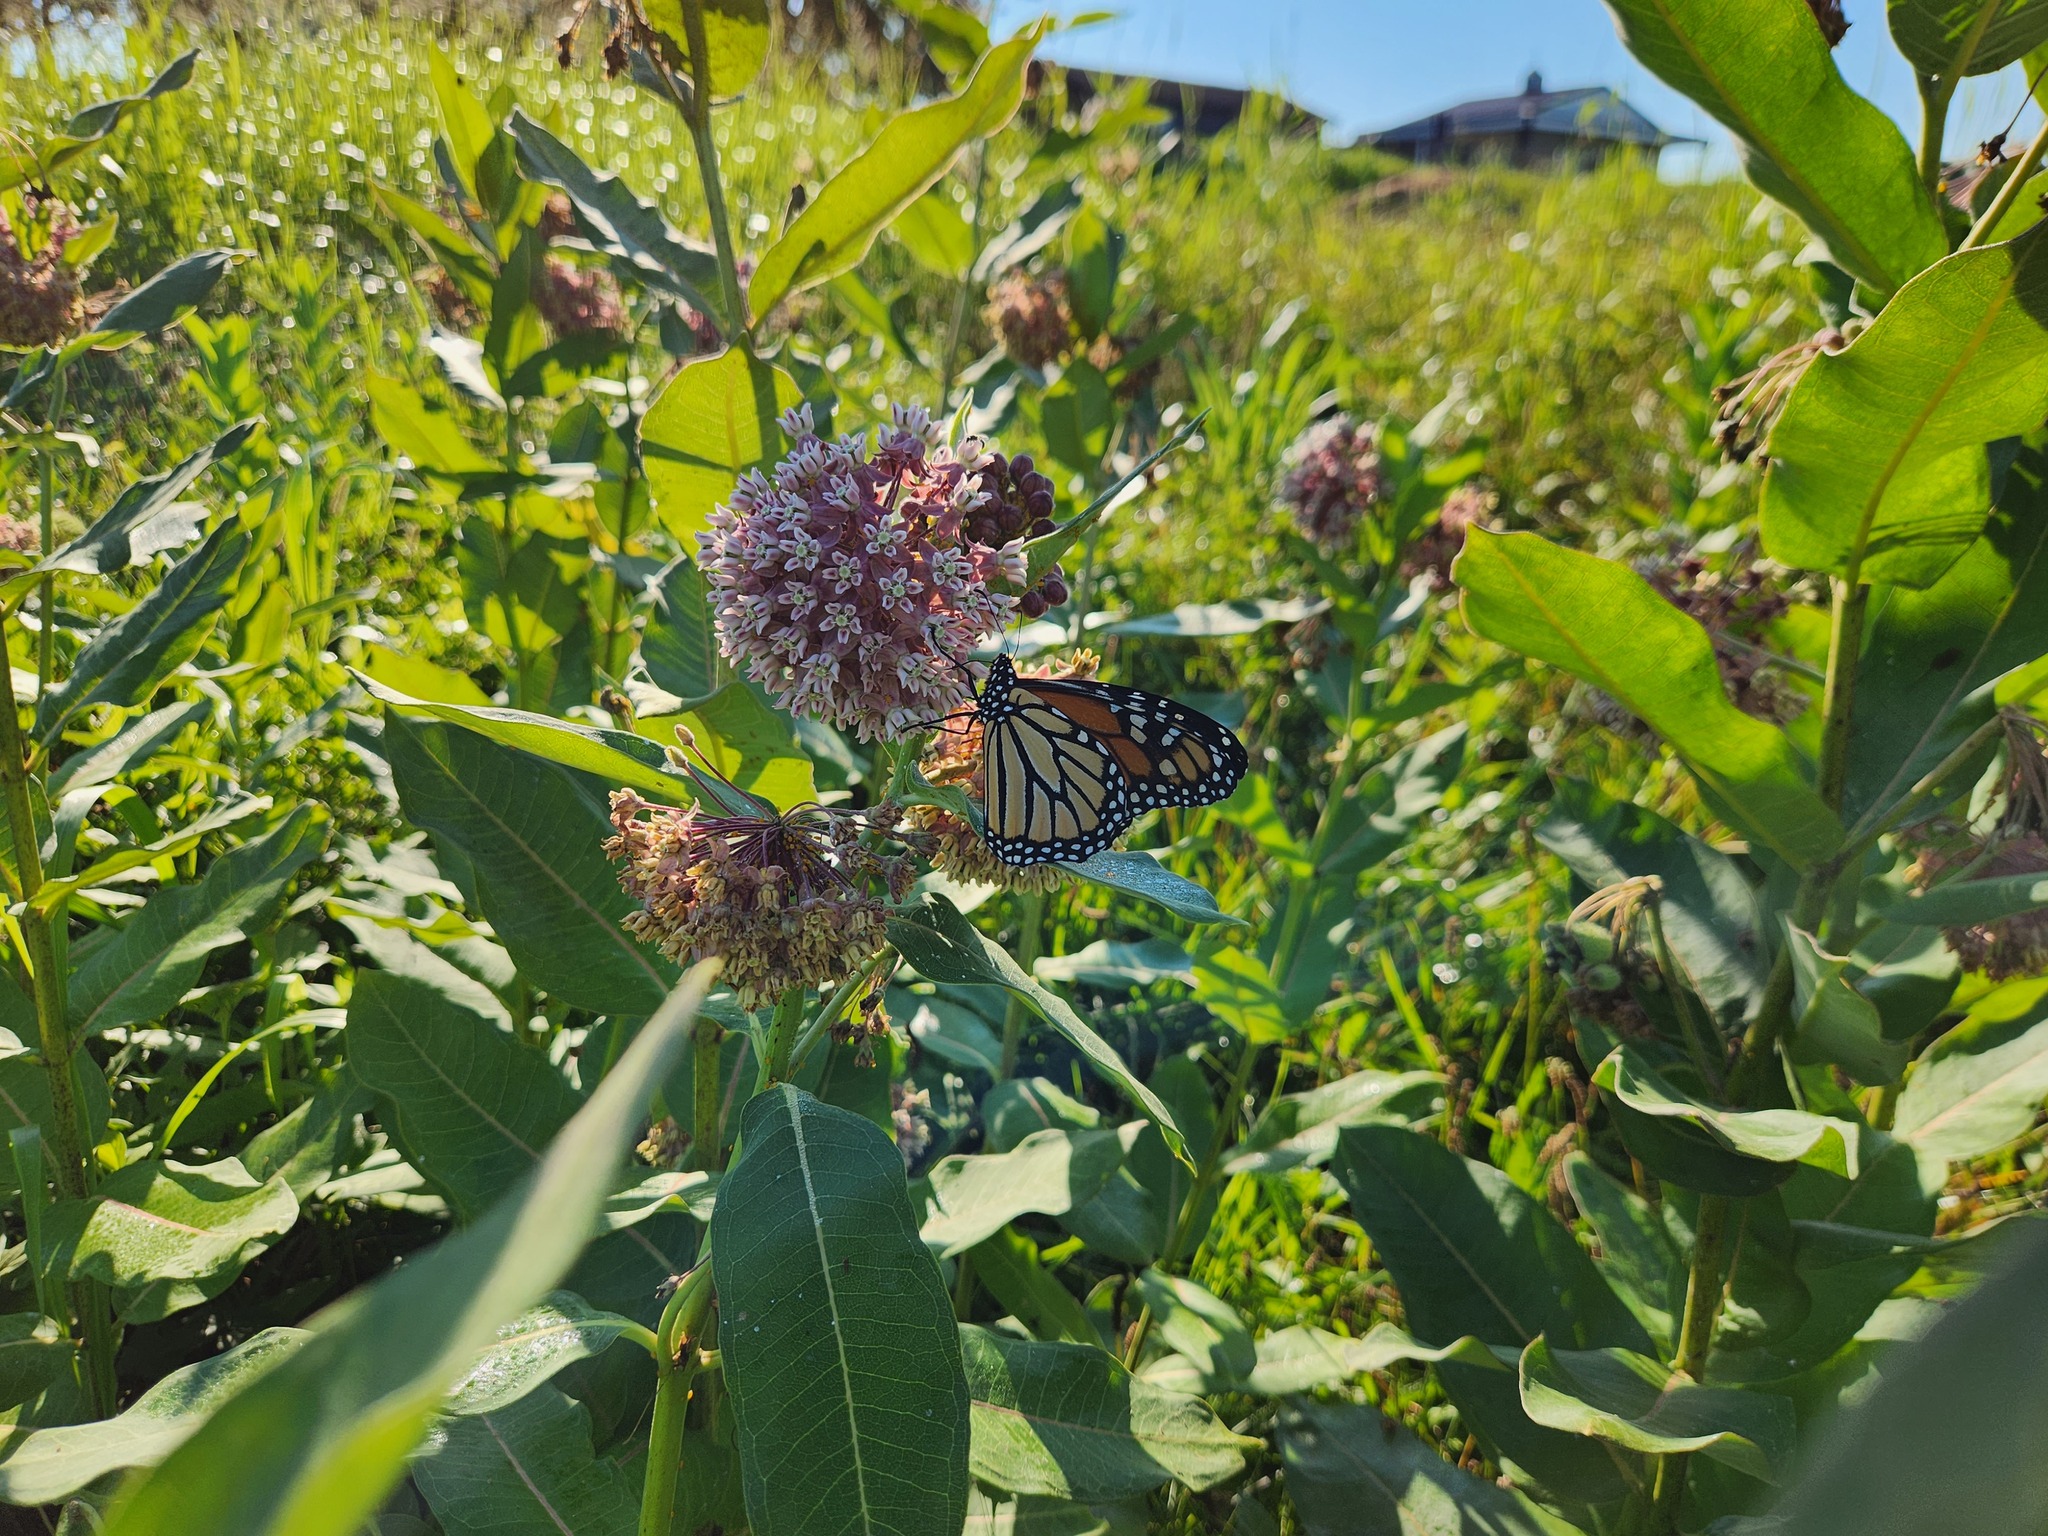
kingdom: Animalia
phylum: Arthropoda
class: Insecta
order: Lepidoptera
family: Nymphalidae
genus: Danaus
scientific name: Danaus plexippus
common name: Monarch
